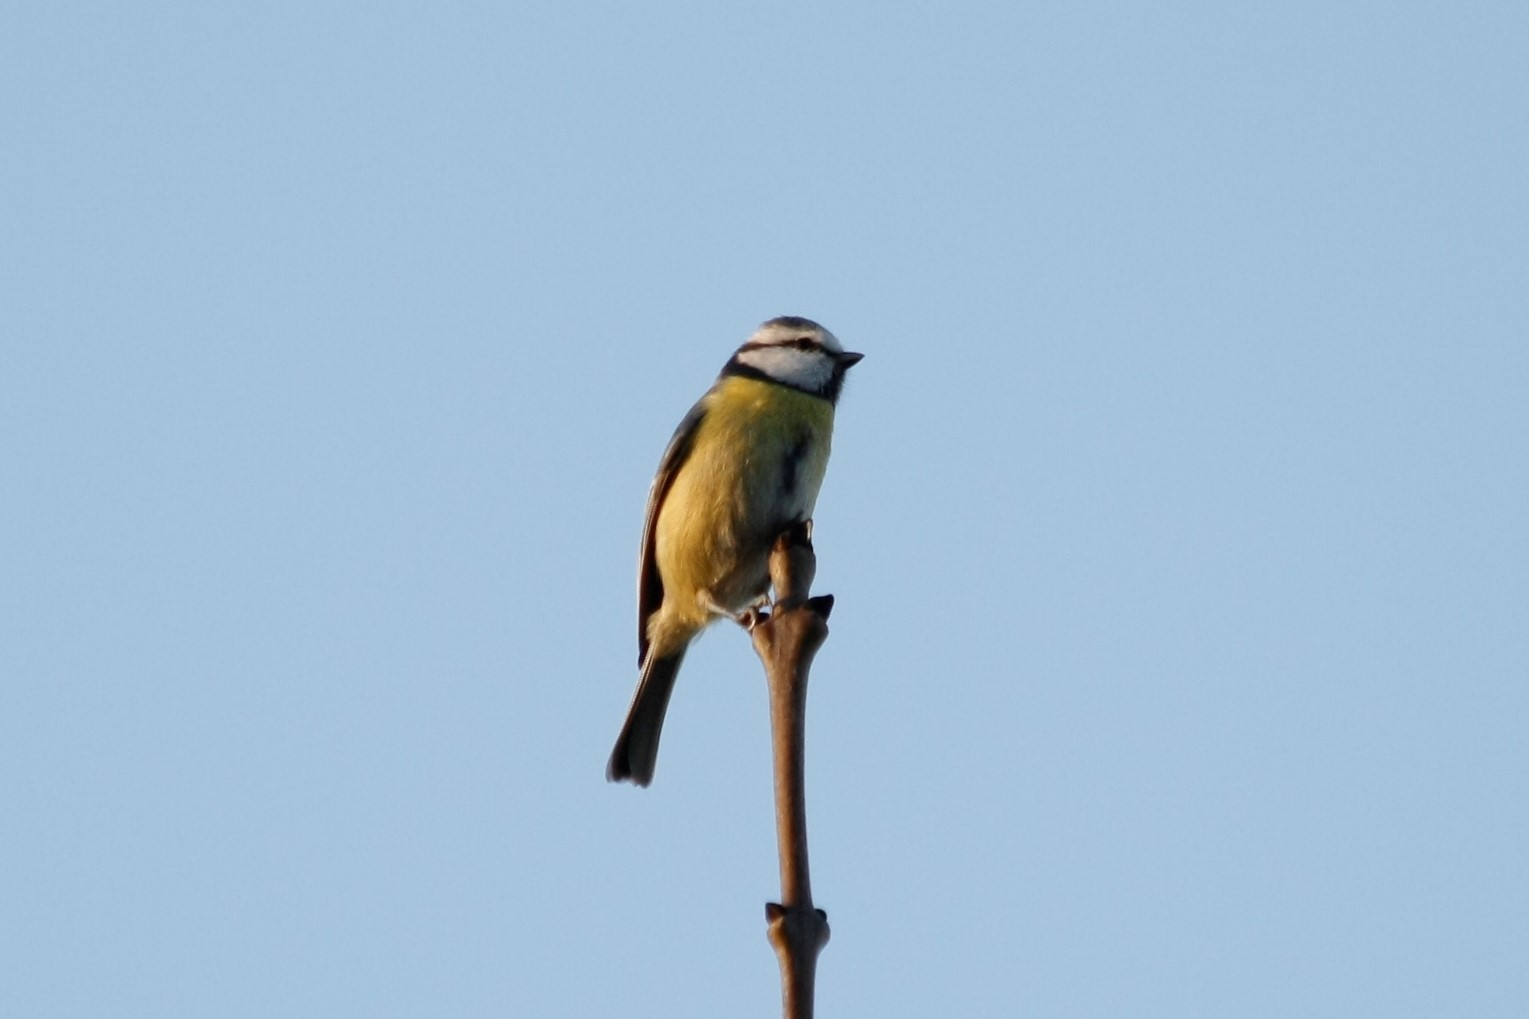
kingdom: Animalia
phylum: Chordata
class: Aves
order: Passeriformes
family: Paridae
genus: Cyanistes
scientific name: Cyanistes caeruleus
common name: Eurasian blue tit
